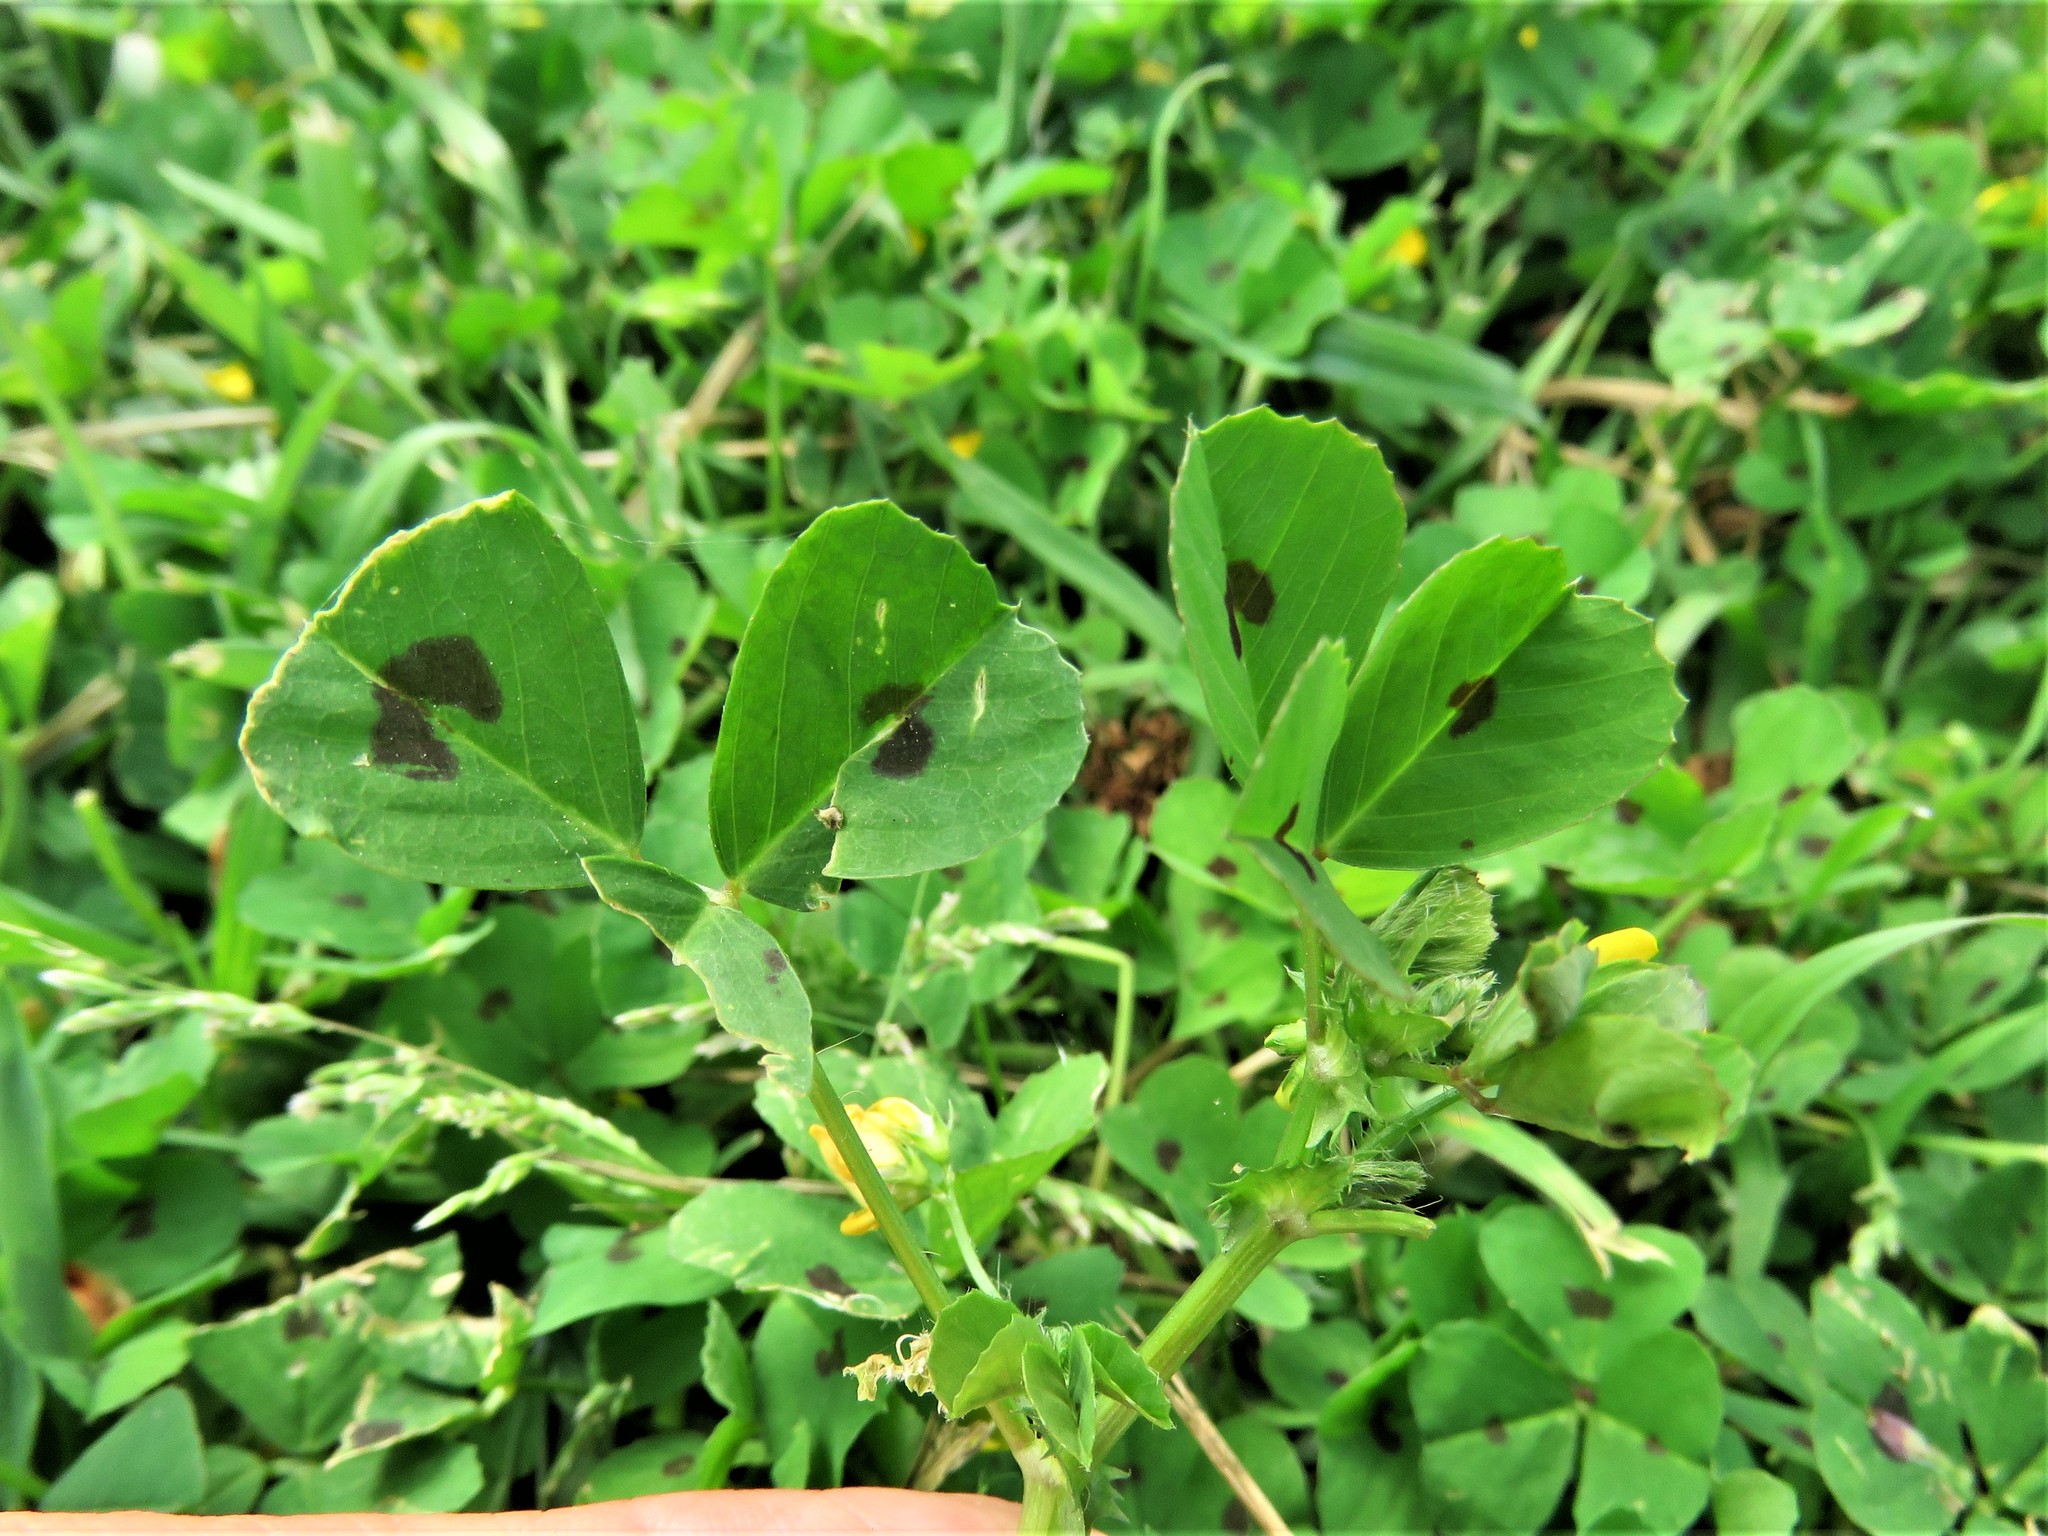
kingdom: Plantae
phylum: Tracheophyta
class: Magnoliopsida
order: Fabales
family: Fabaceae
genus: Medicago
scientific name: Medicago arabica
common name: Spotted medick
